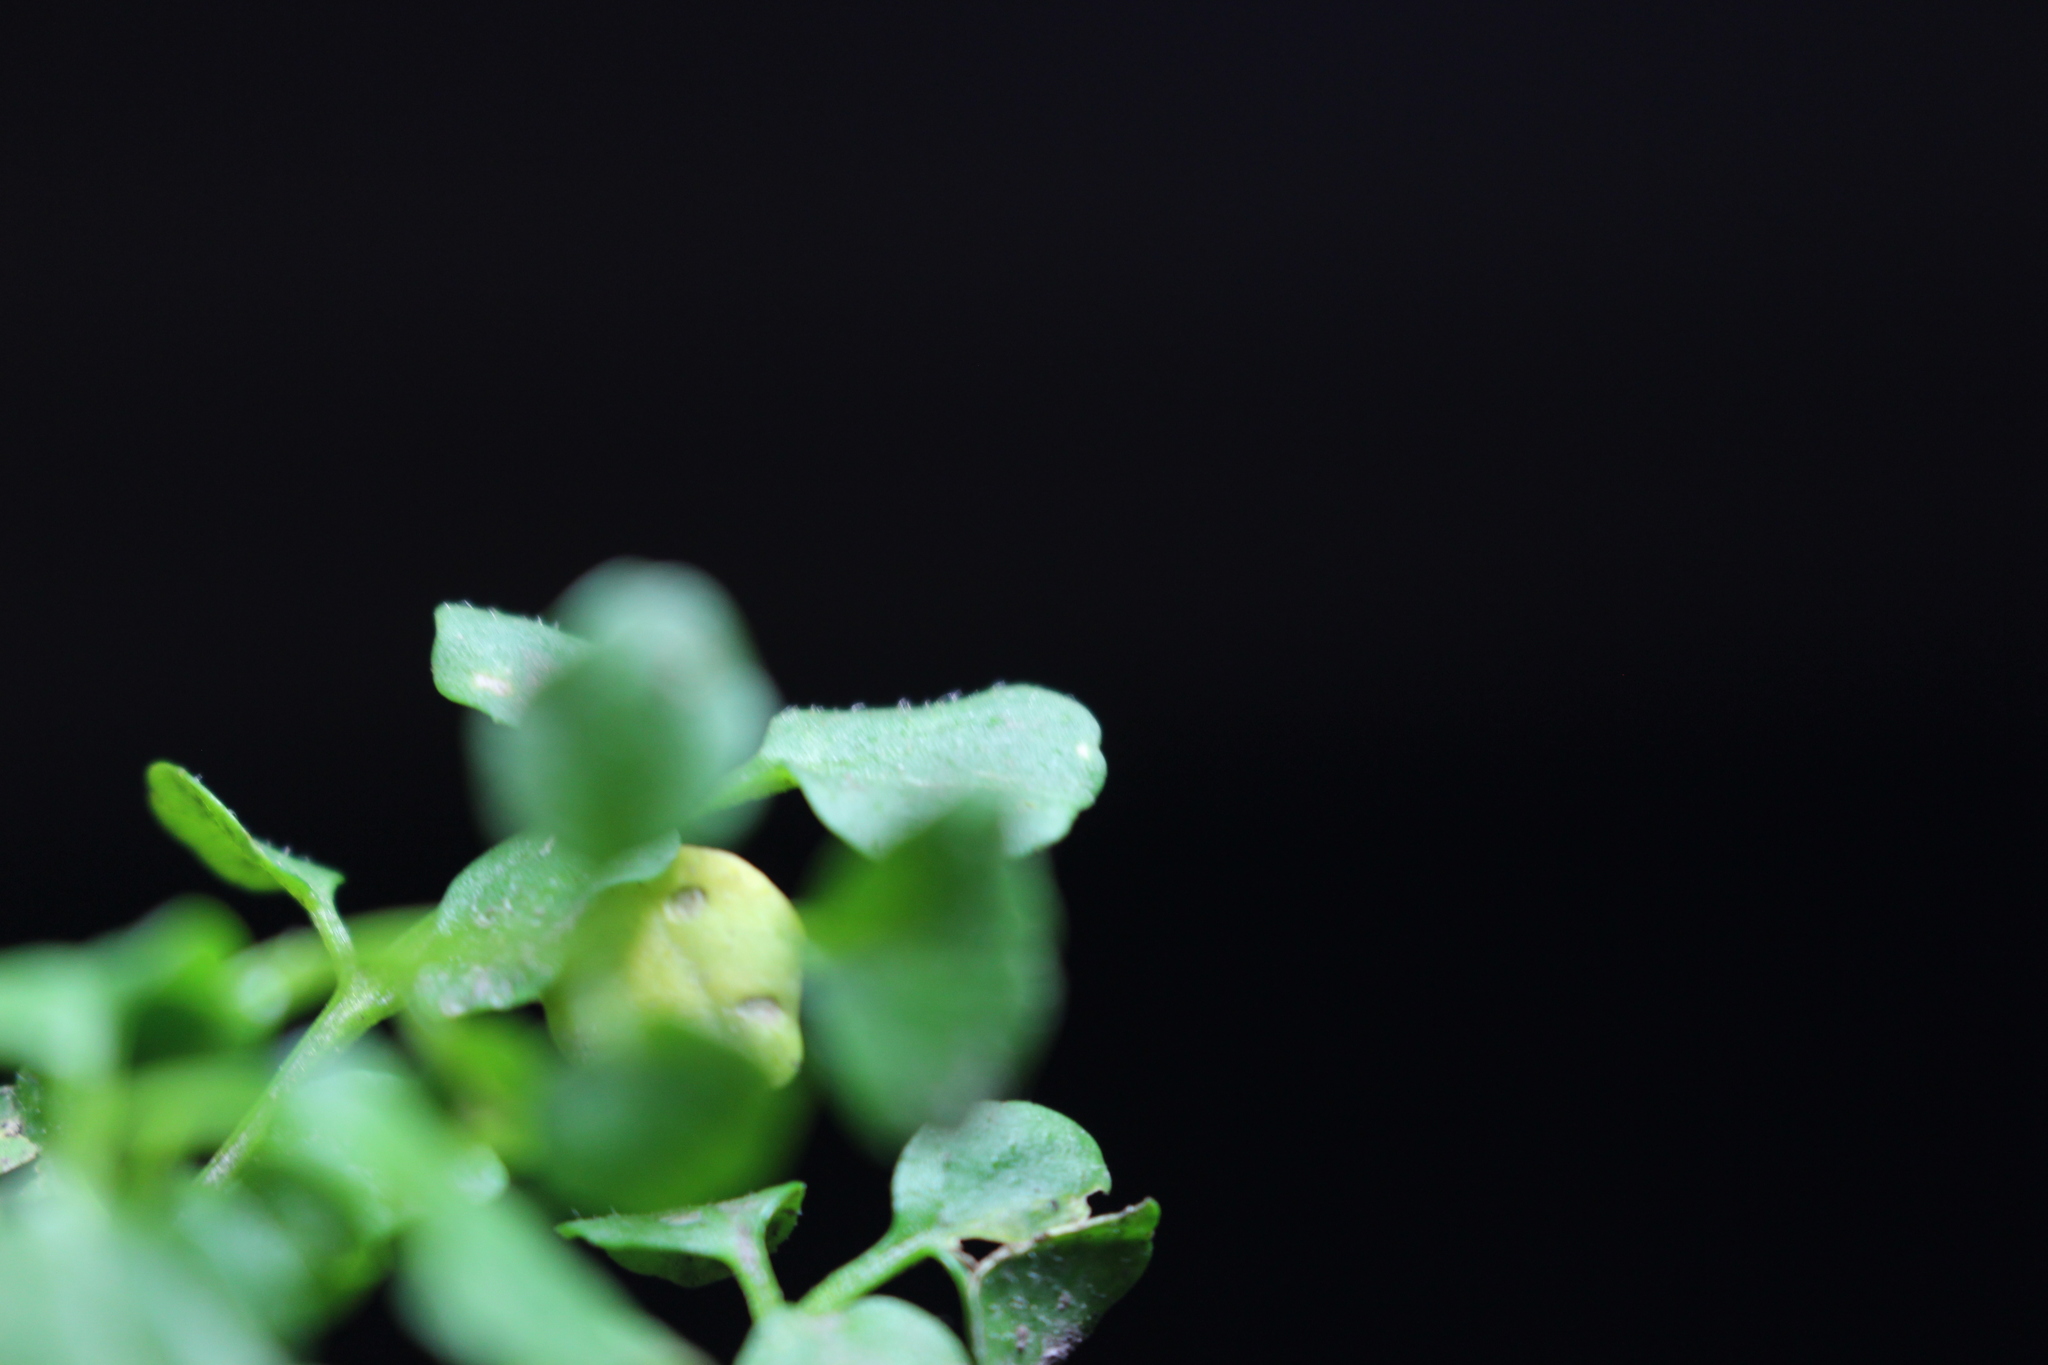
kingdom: Plantae
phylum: Tracheophyta
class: Magnoliopsida
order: Brassicales
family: Brassicaceae
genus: Cardamine
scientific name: Cardamine hirsuta
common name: Hairy bittercress
